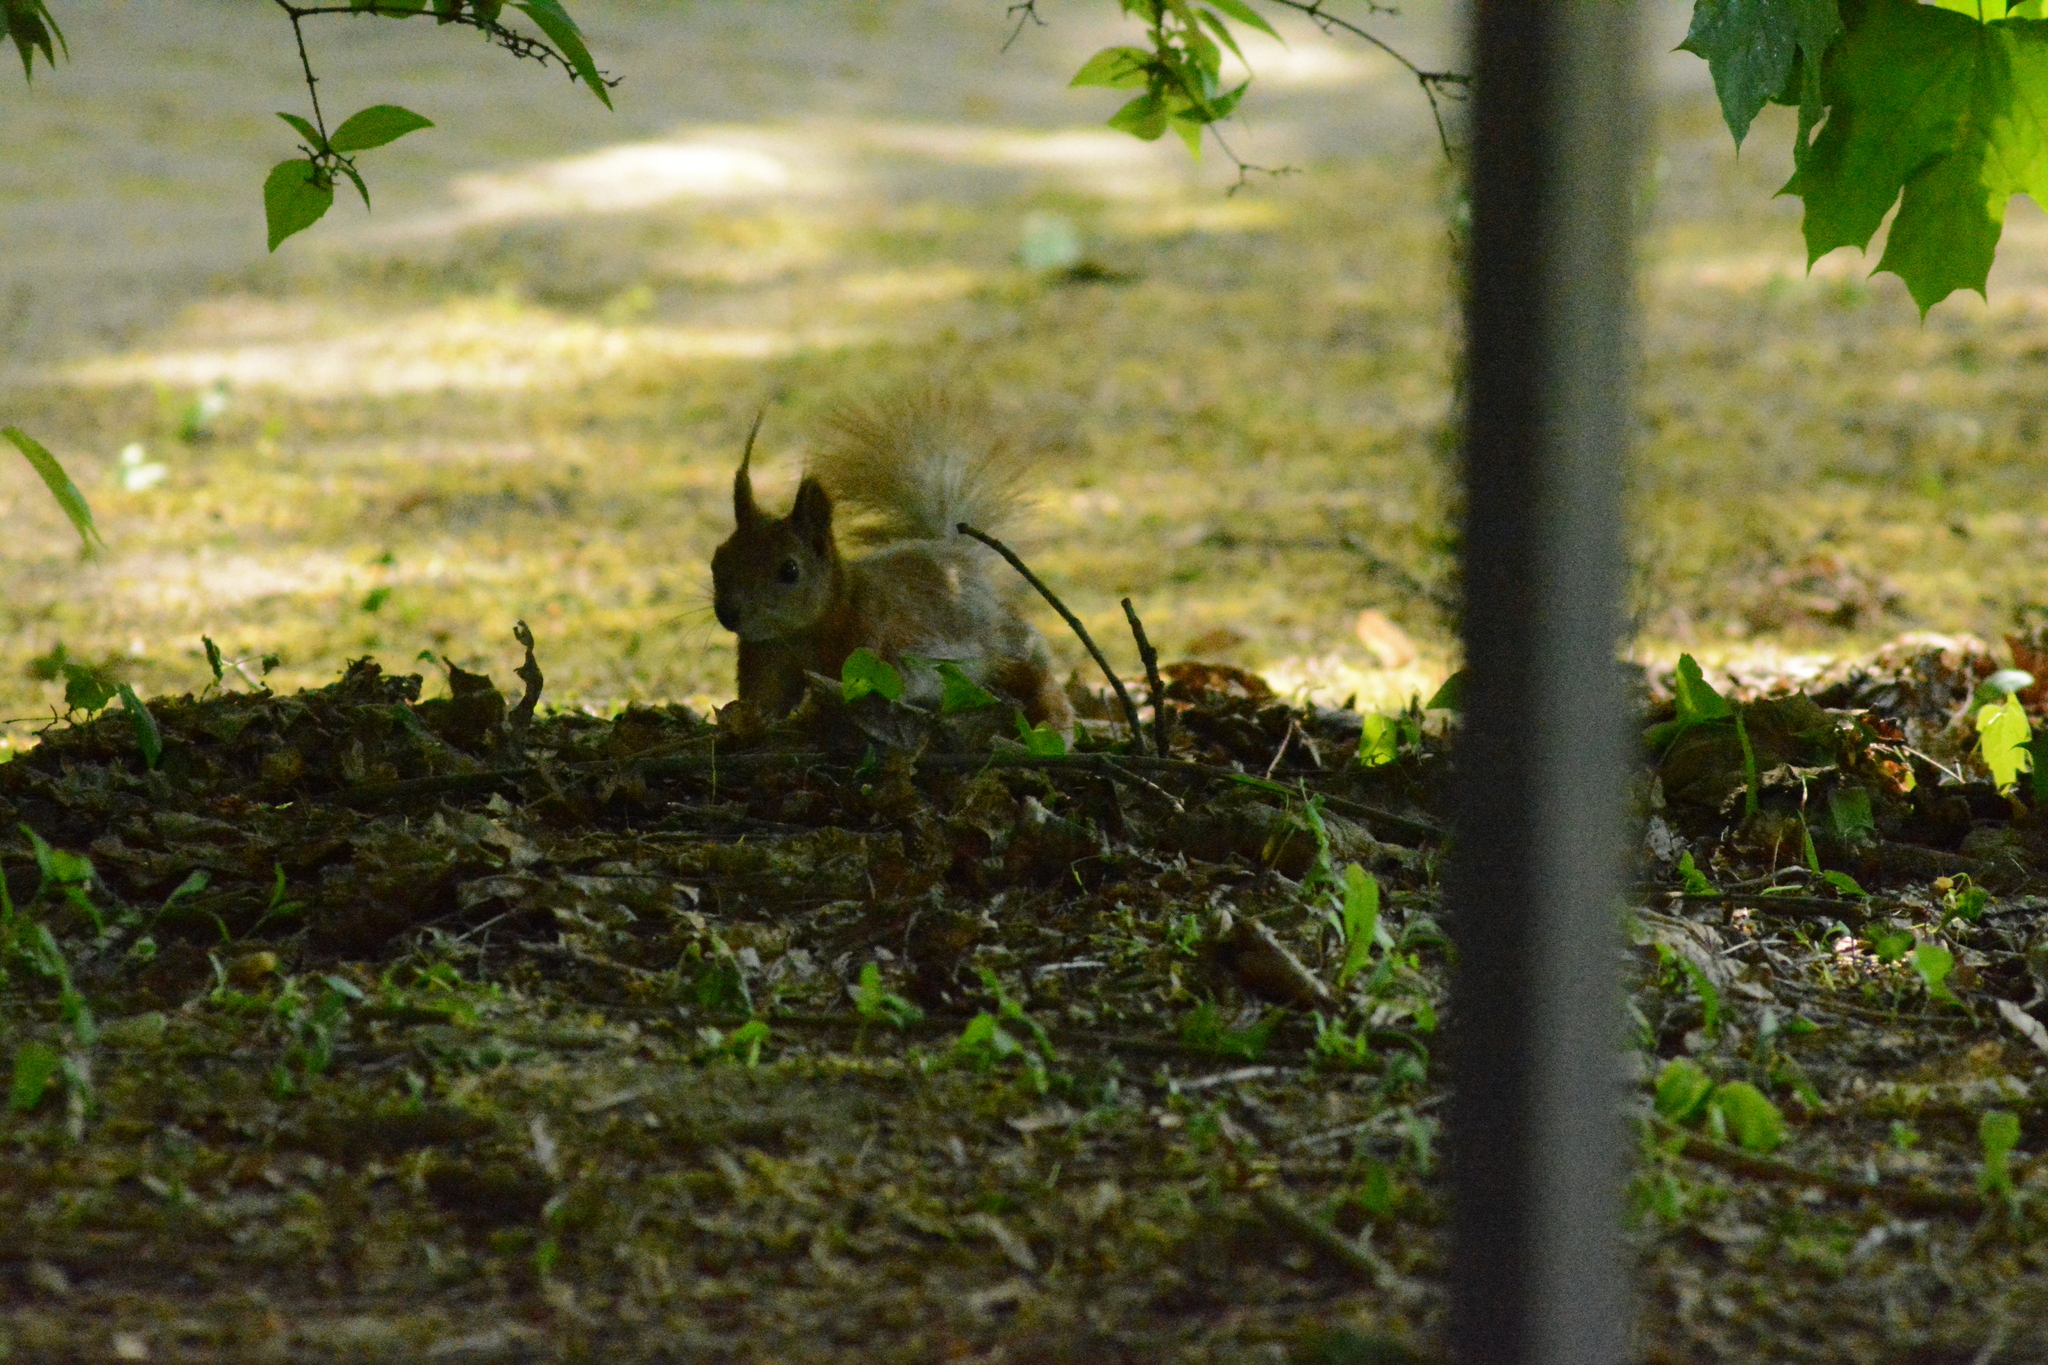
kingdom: Animalia
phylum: Chordata
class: Mammalia
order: Rodentia
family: Sciuridae
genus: Sciurus
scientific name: Sciurus vulgaris
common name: Eurasian red squirrel
